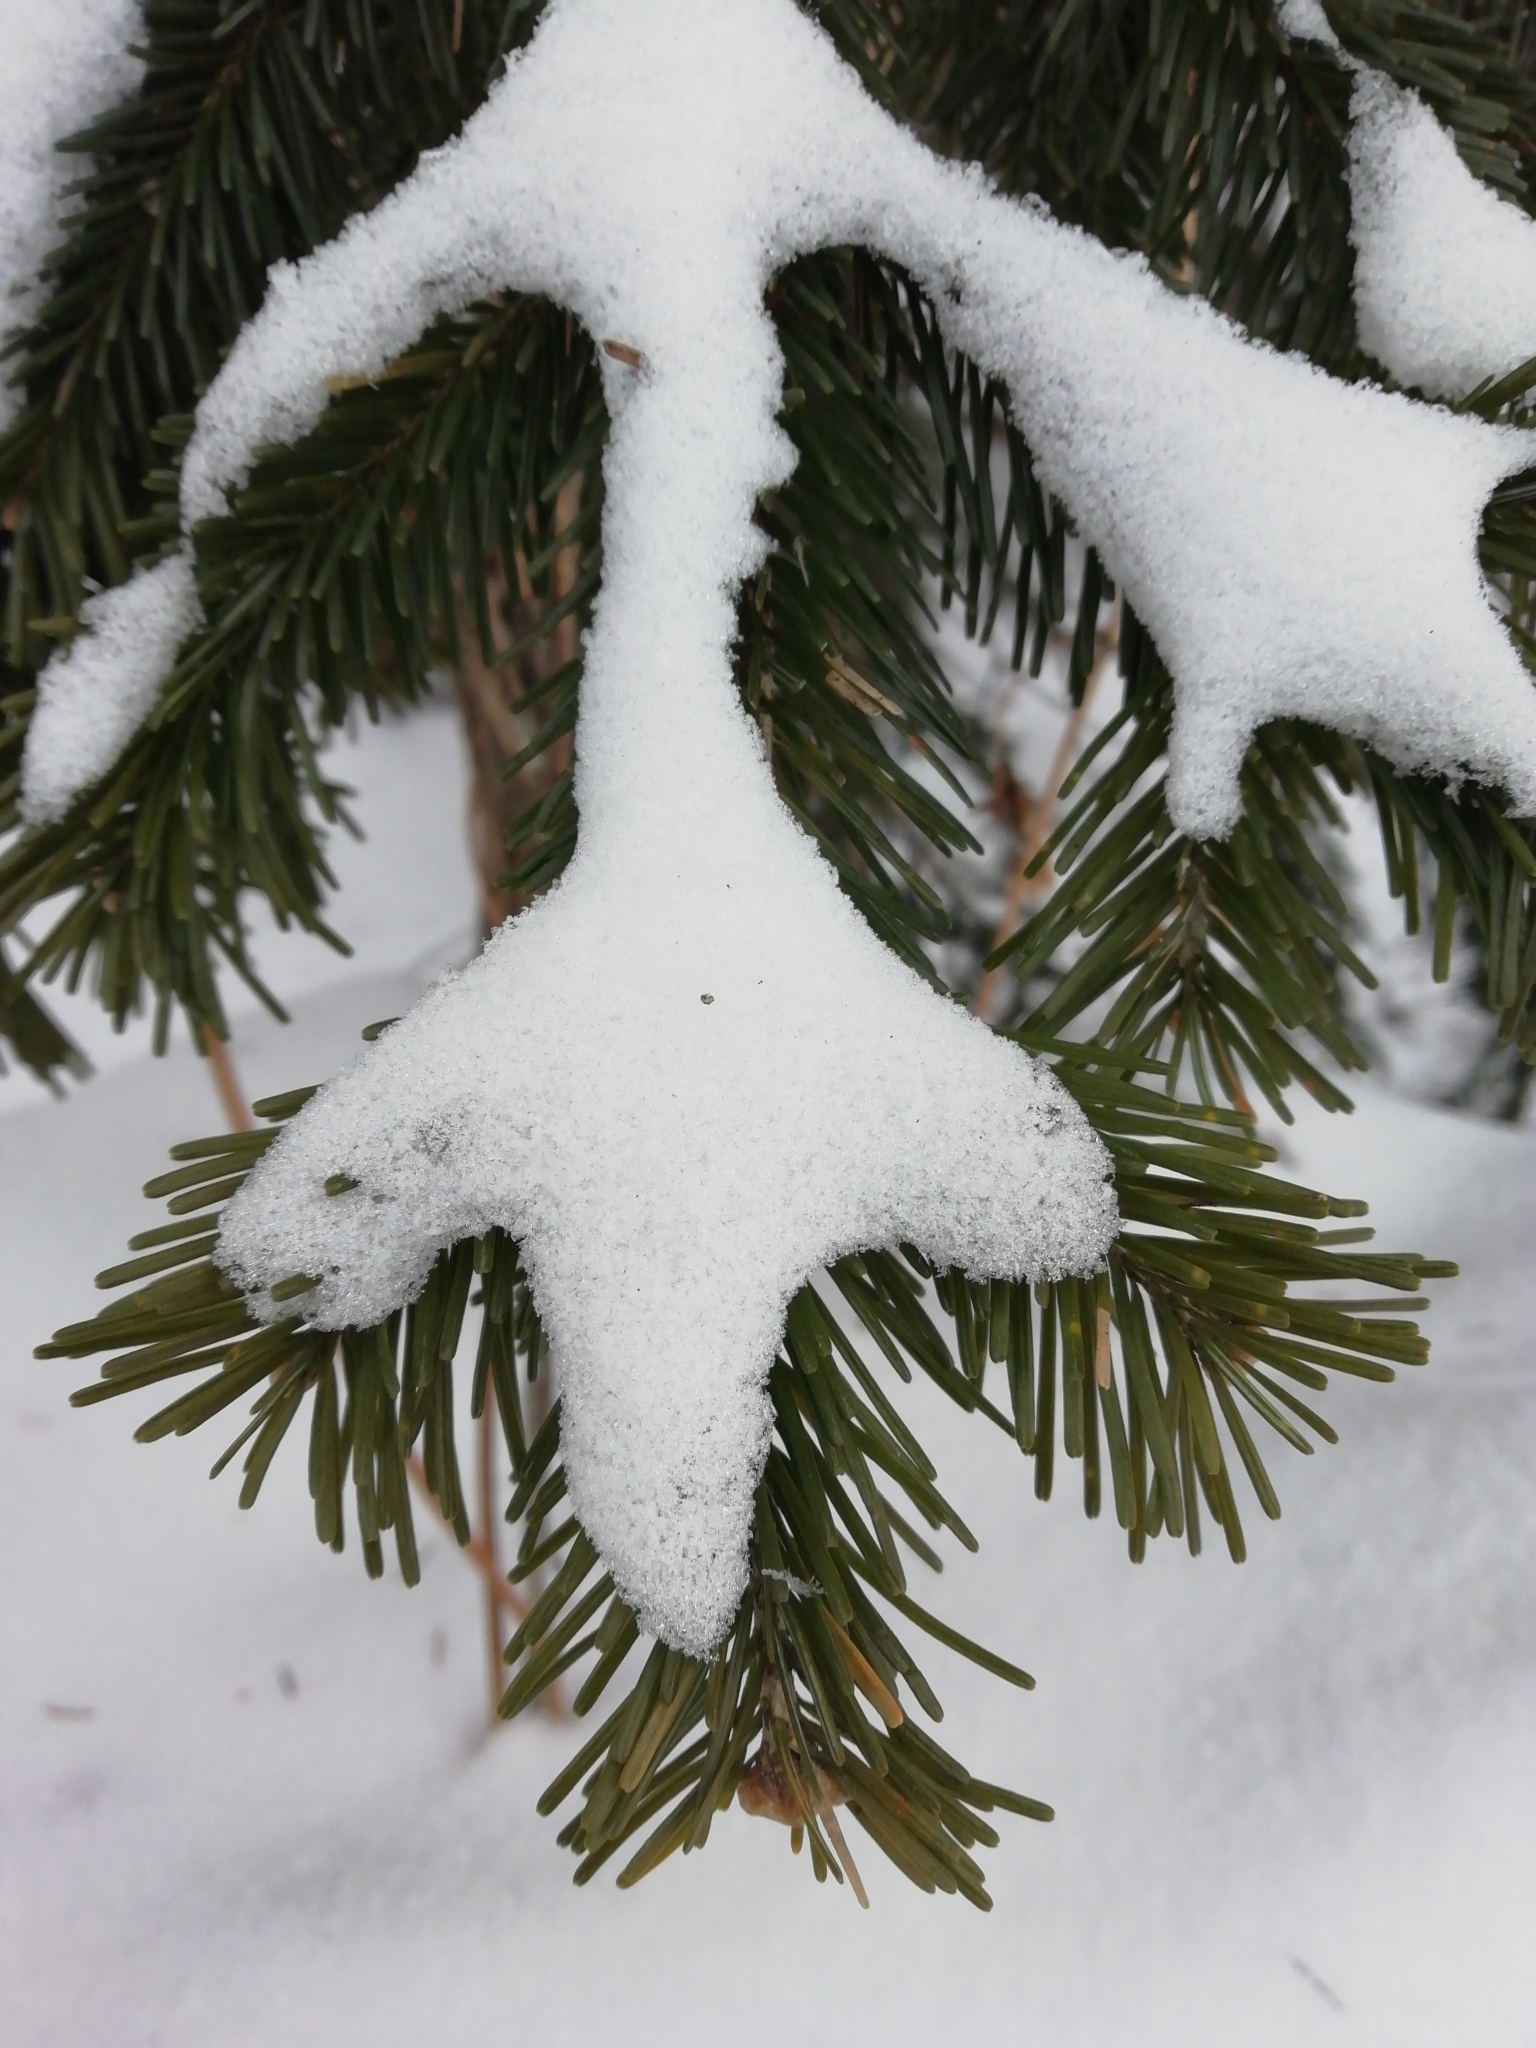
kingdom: Plantae
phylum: Tracheophyta
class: Pinopsida
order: Pinales
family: Pinaceae
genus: Abies
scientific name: Abies sibirica
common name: Siberian fir
